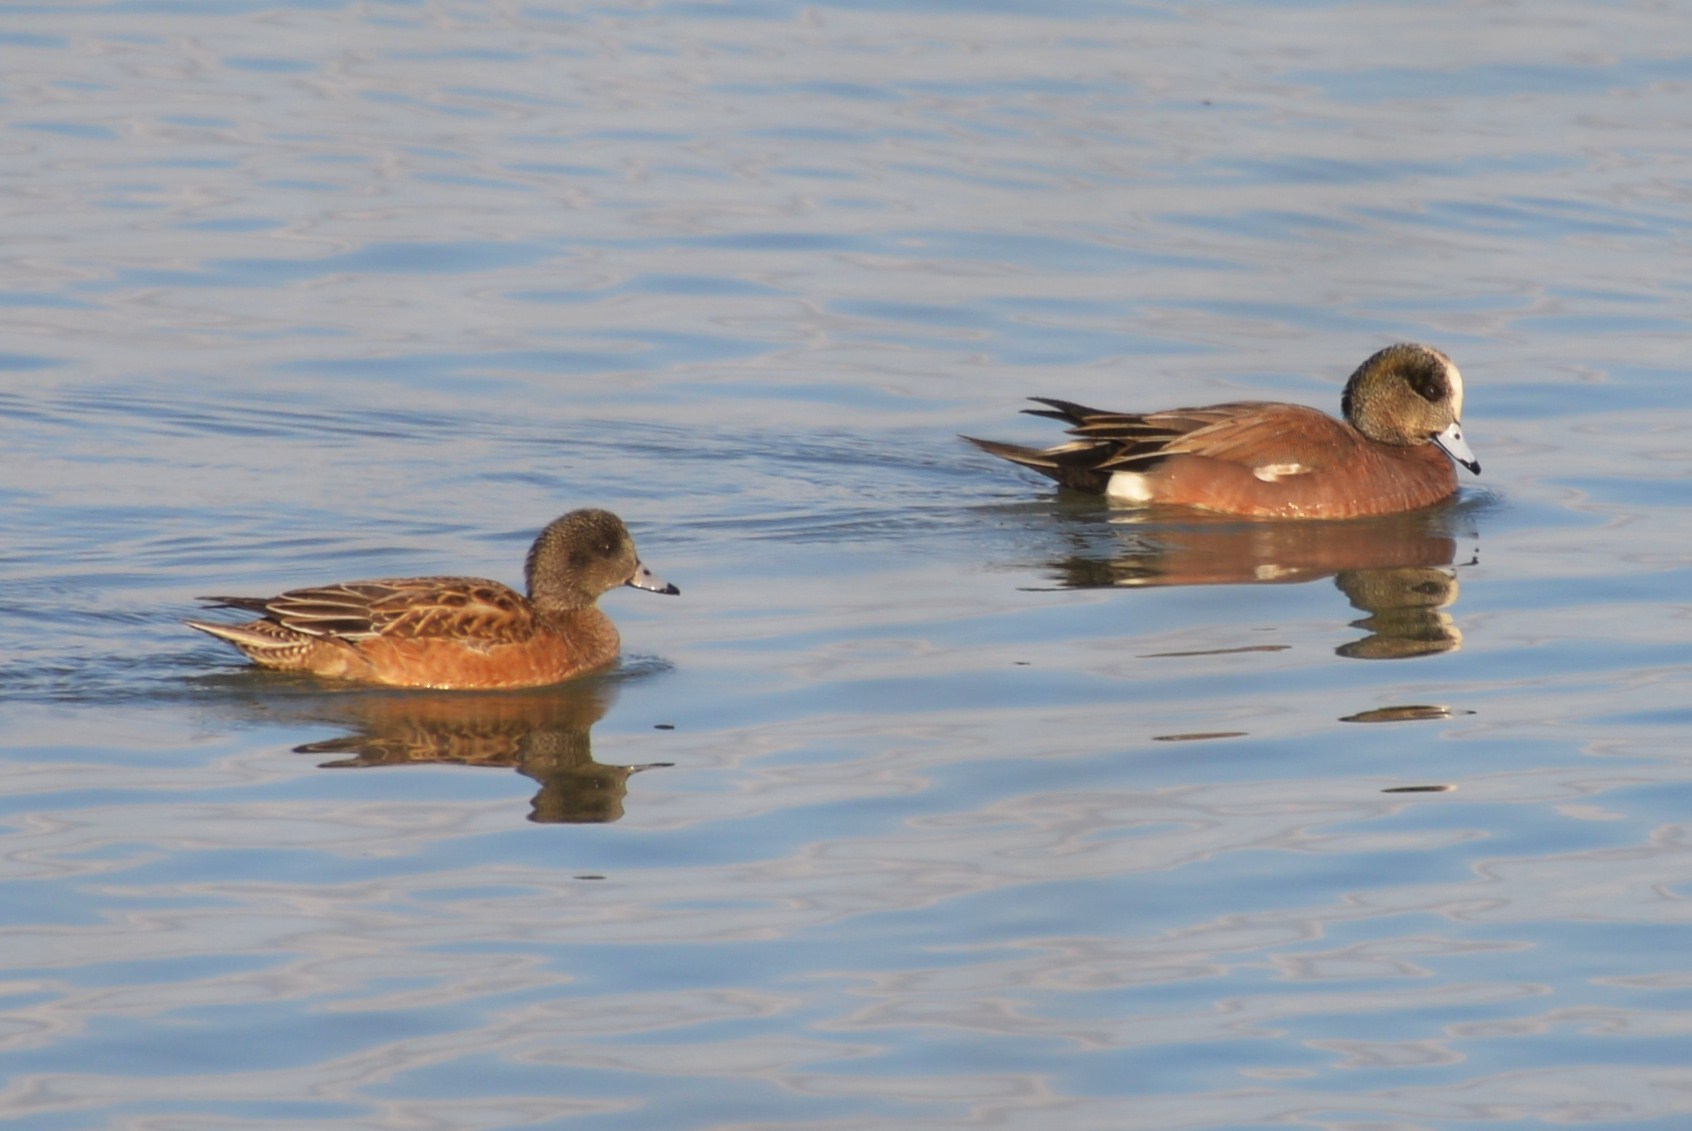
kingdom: Animalia
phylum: Chordata
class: Aves
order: Anseriformes
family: Anatidae
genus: Mareca
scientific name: Mareca americana
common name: American wigeon
